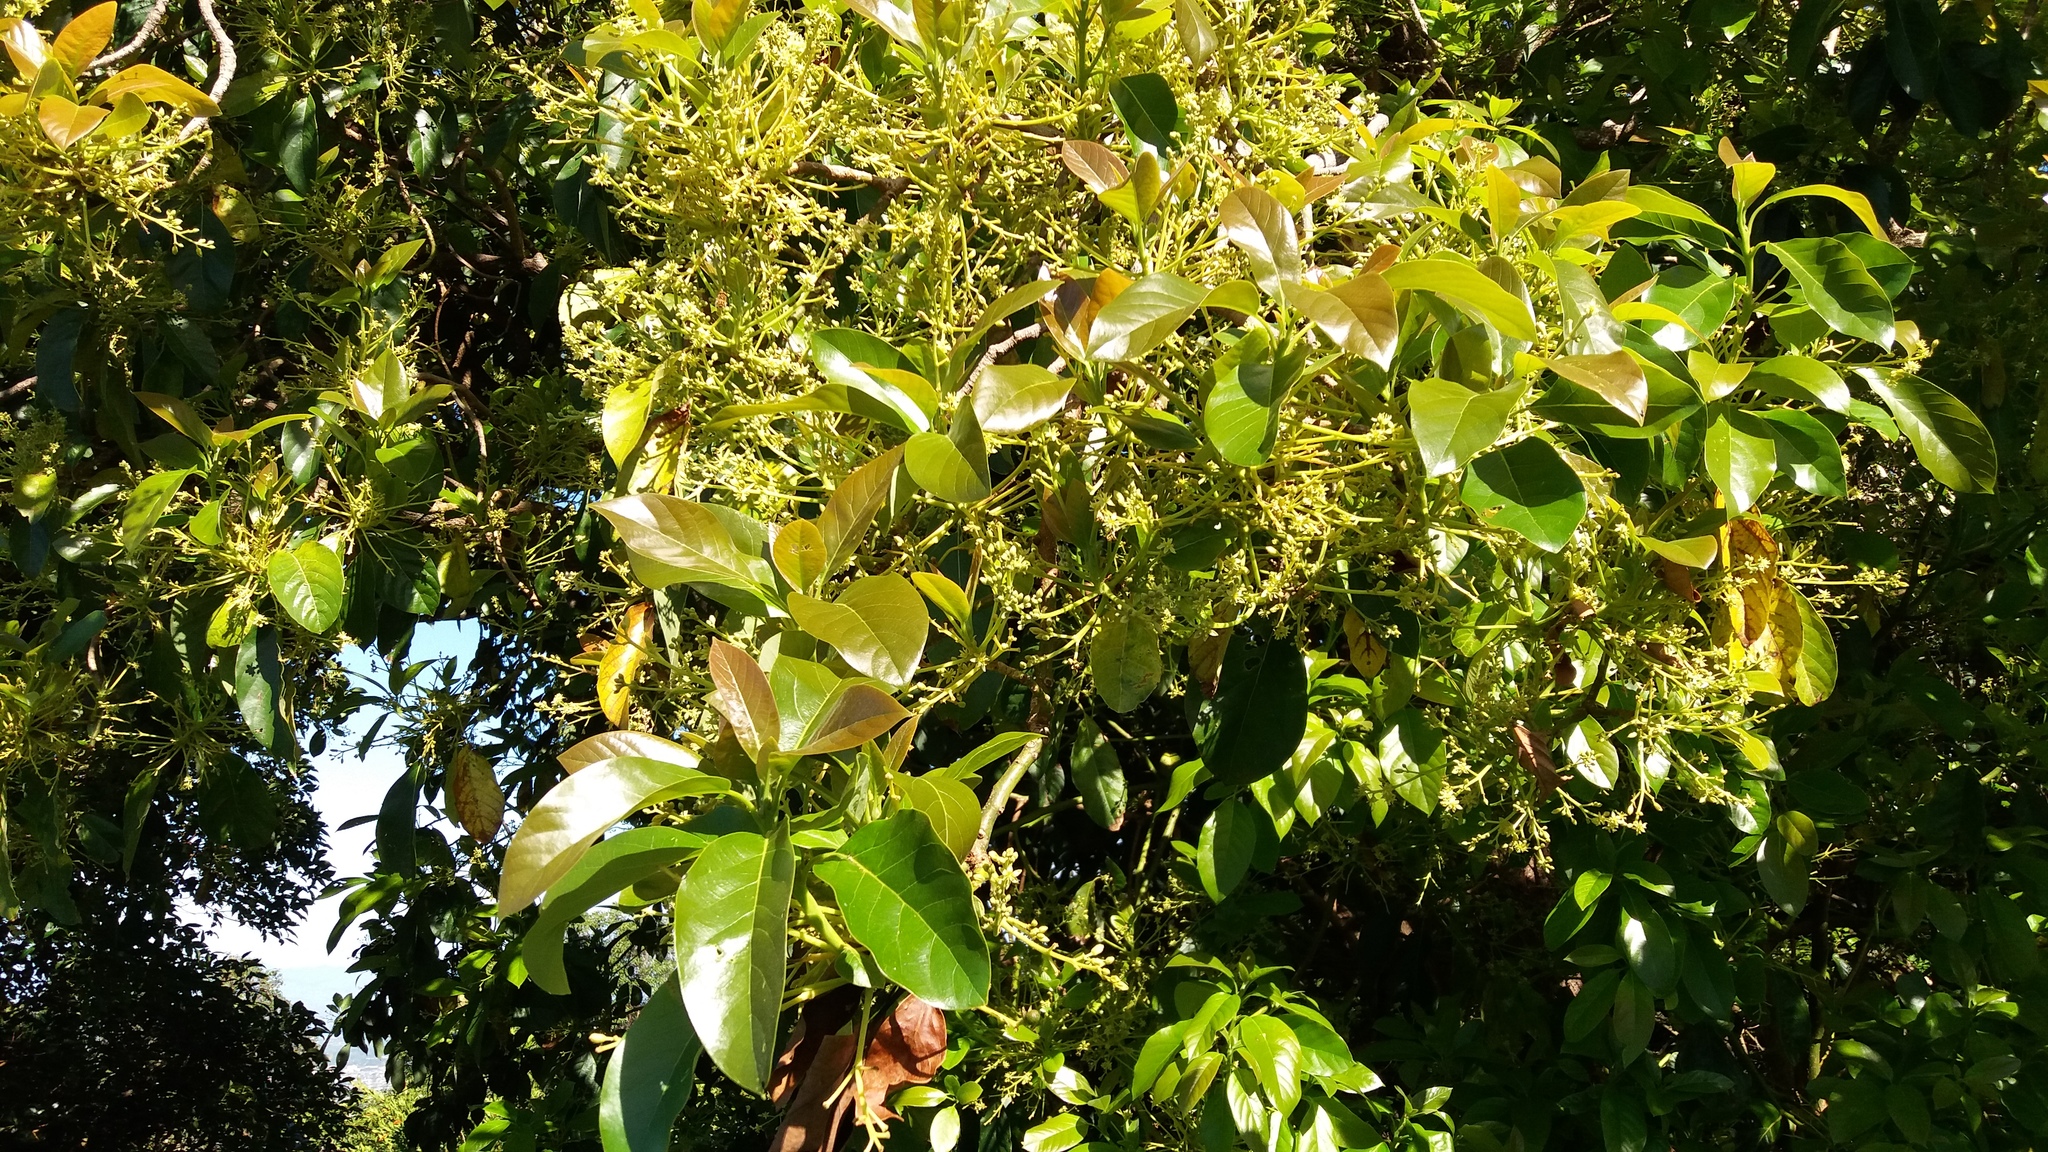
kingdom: Plantae
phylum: Tracheophyta
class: Magnoliopsida
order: Laurales
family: Lauraceae
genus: Persea
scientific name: Persea americana
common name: Avocado
